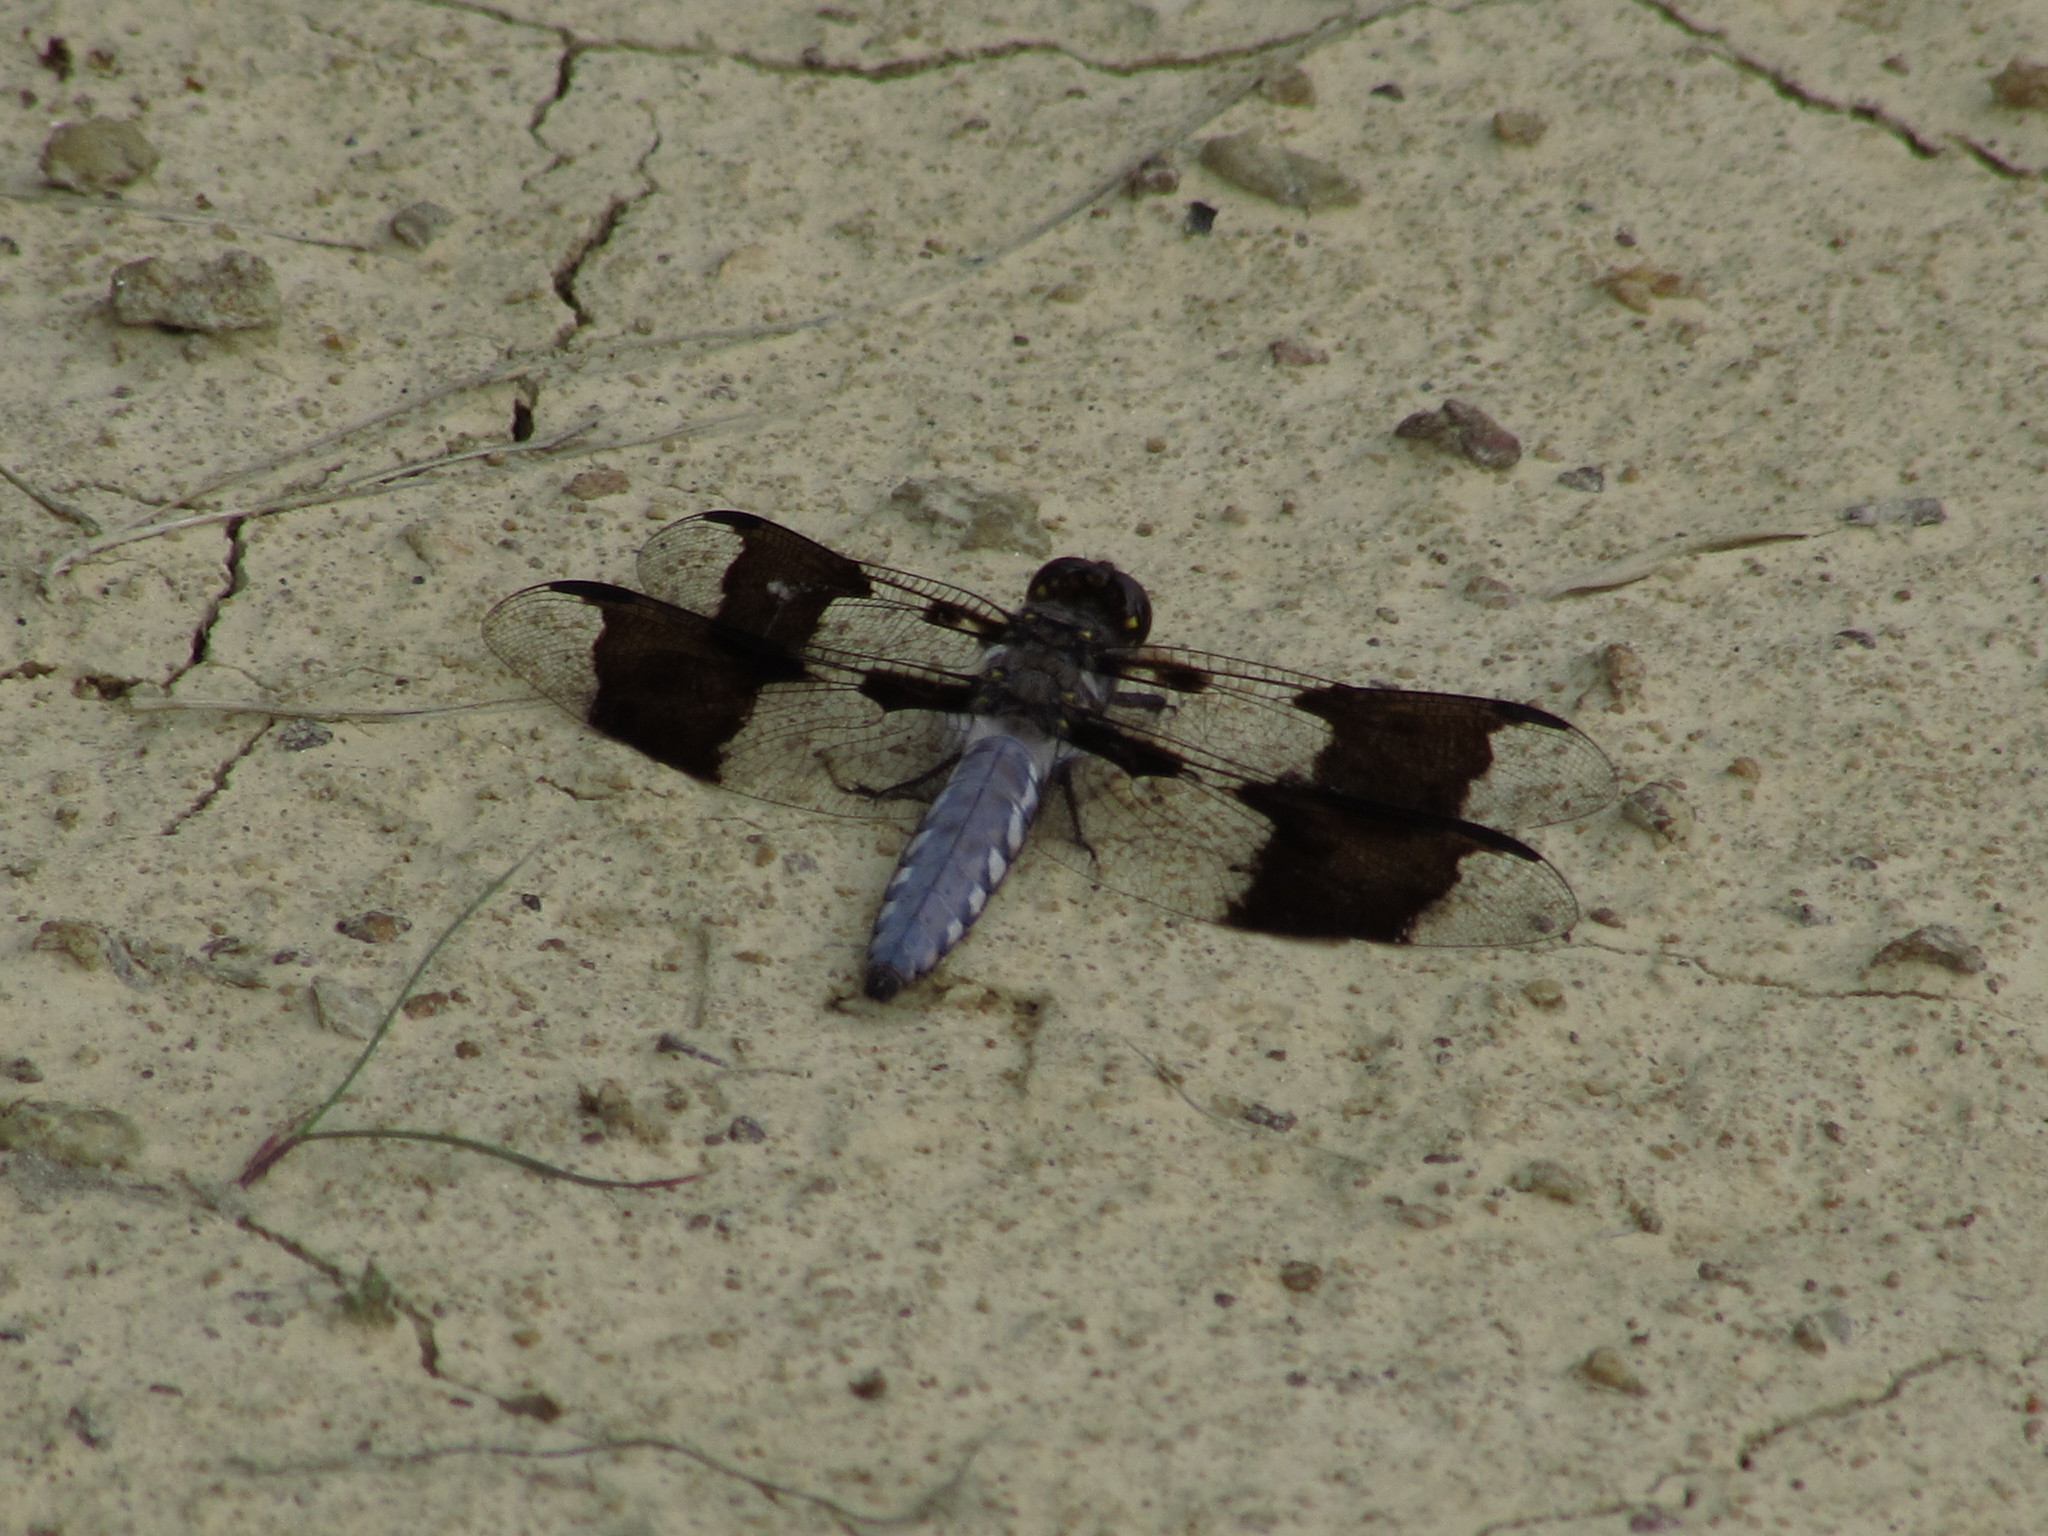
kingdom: Animalia
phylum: Arthropoda
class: Insecta
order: Odonata
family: Libellulidae
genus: Plathemis
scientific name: Plathemis lydia
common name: Common whitetail
